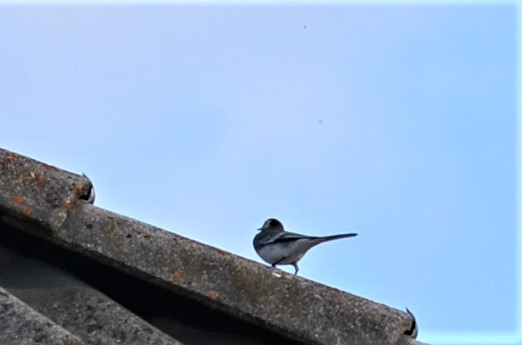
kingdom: Animalia
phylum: Chordata
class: Aves
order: Passeriformes
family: Motacillidae
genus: Motacilla
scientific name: Motacilla alba
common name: White wagtail
